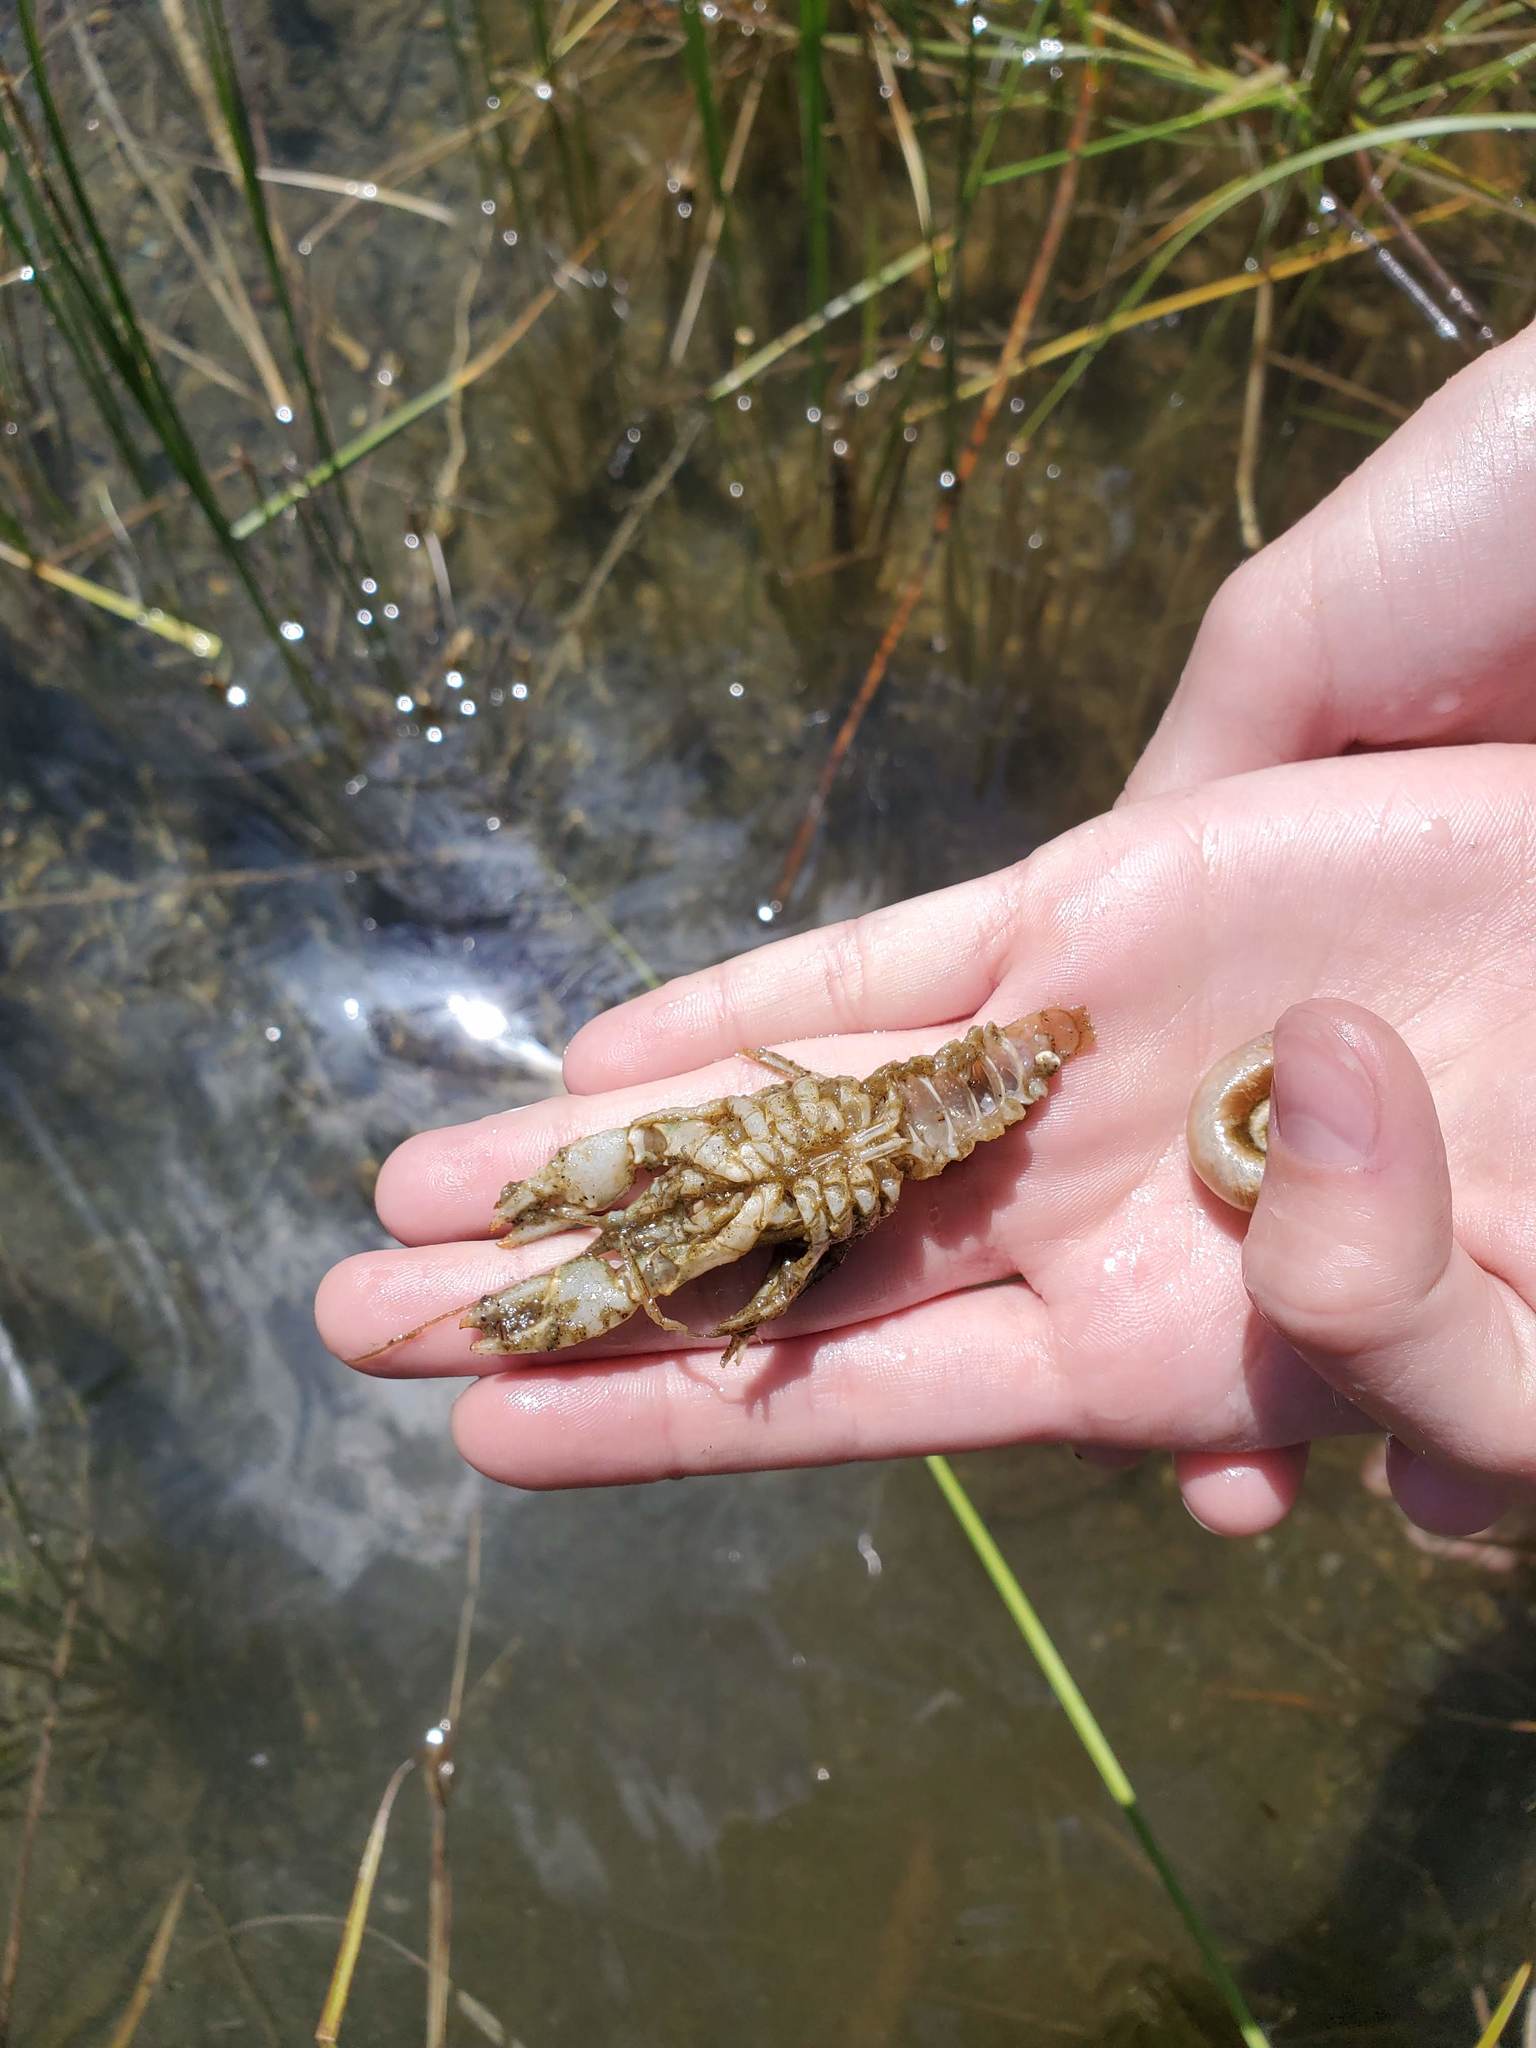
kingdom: Animalia
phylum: Arthropoda
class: Malacostraca
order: Decapoda
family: Cambaridae
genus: Faxonius
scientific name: Faxonius virilis
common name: Virile crayfish
